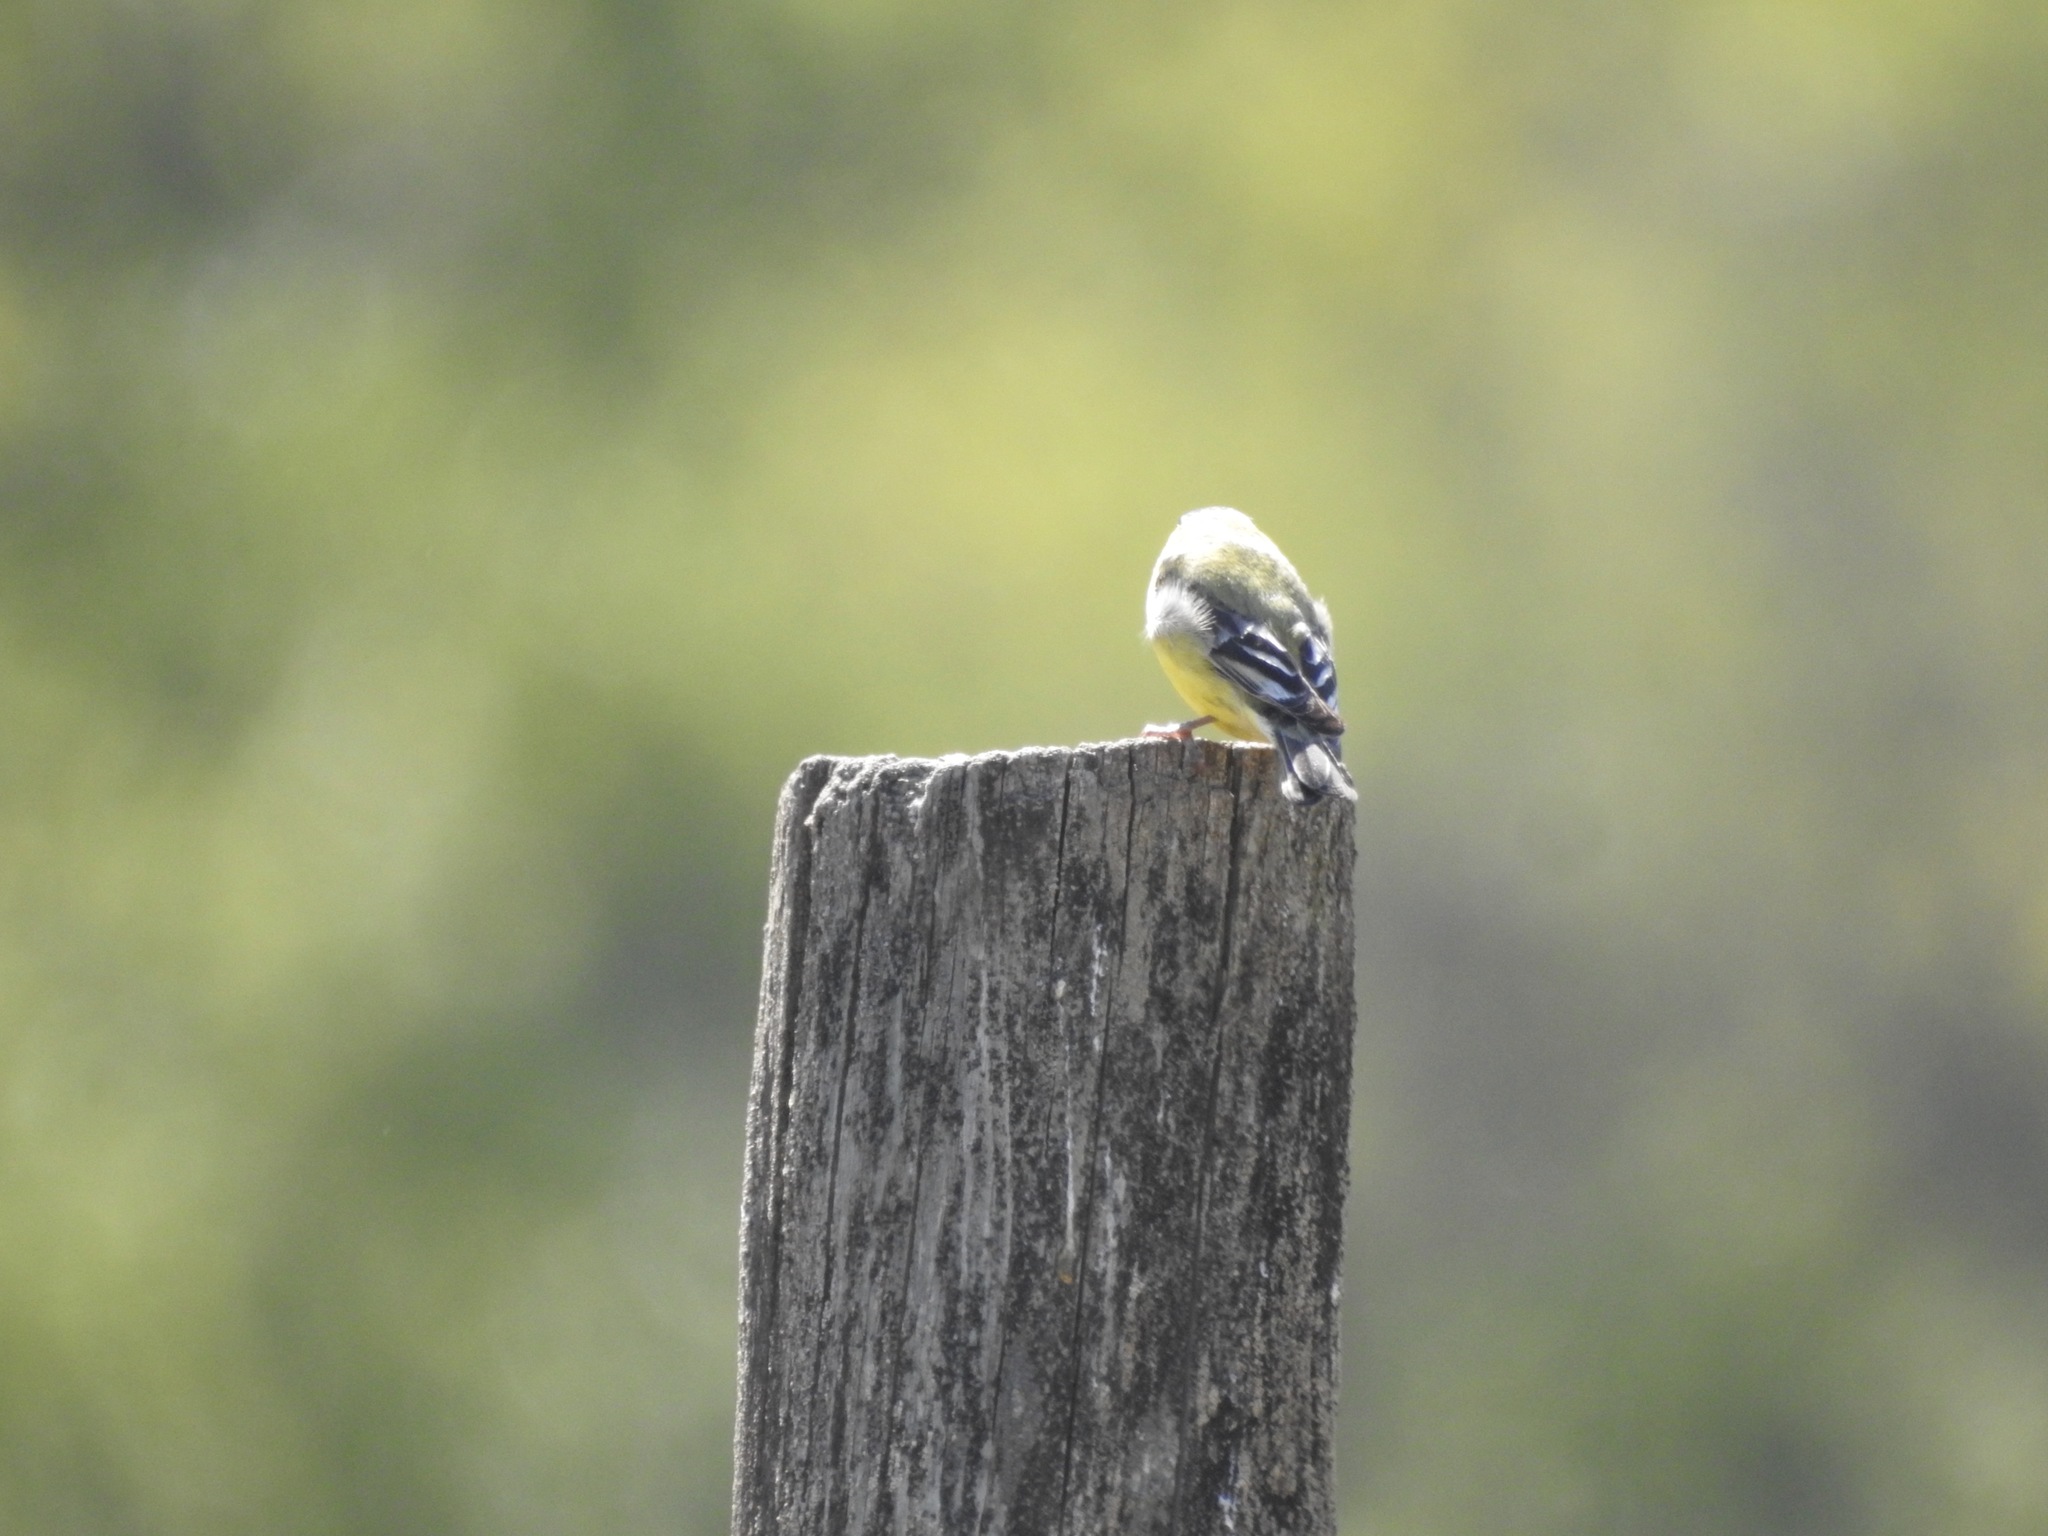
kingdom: Animalia
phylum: Chordata
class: Aves
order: Passeriformes
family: Fringillidae
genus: Spinus
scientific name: Spinus psaltria
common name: Lesser goldfinch
